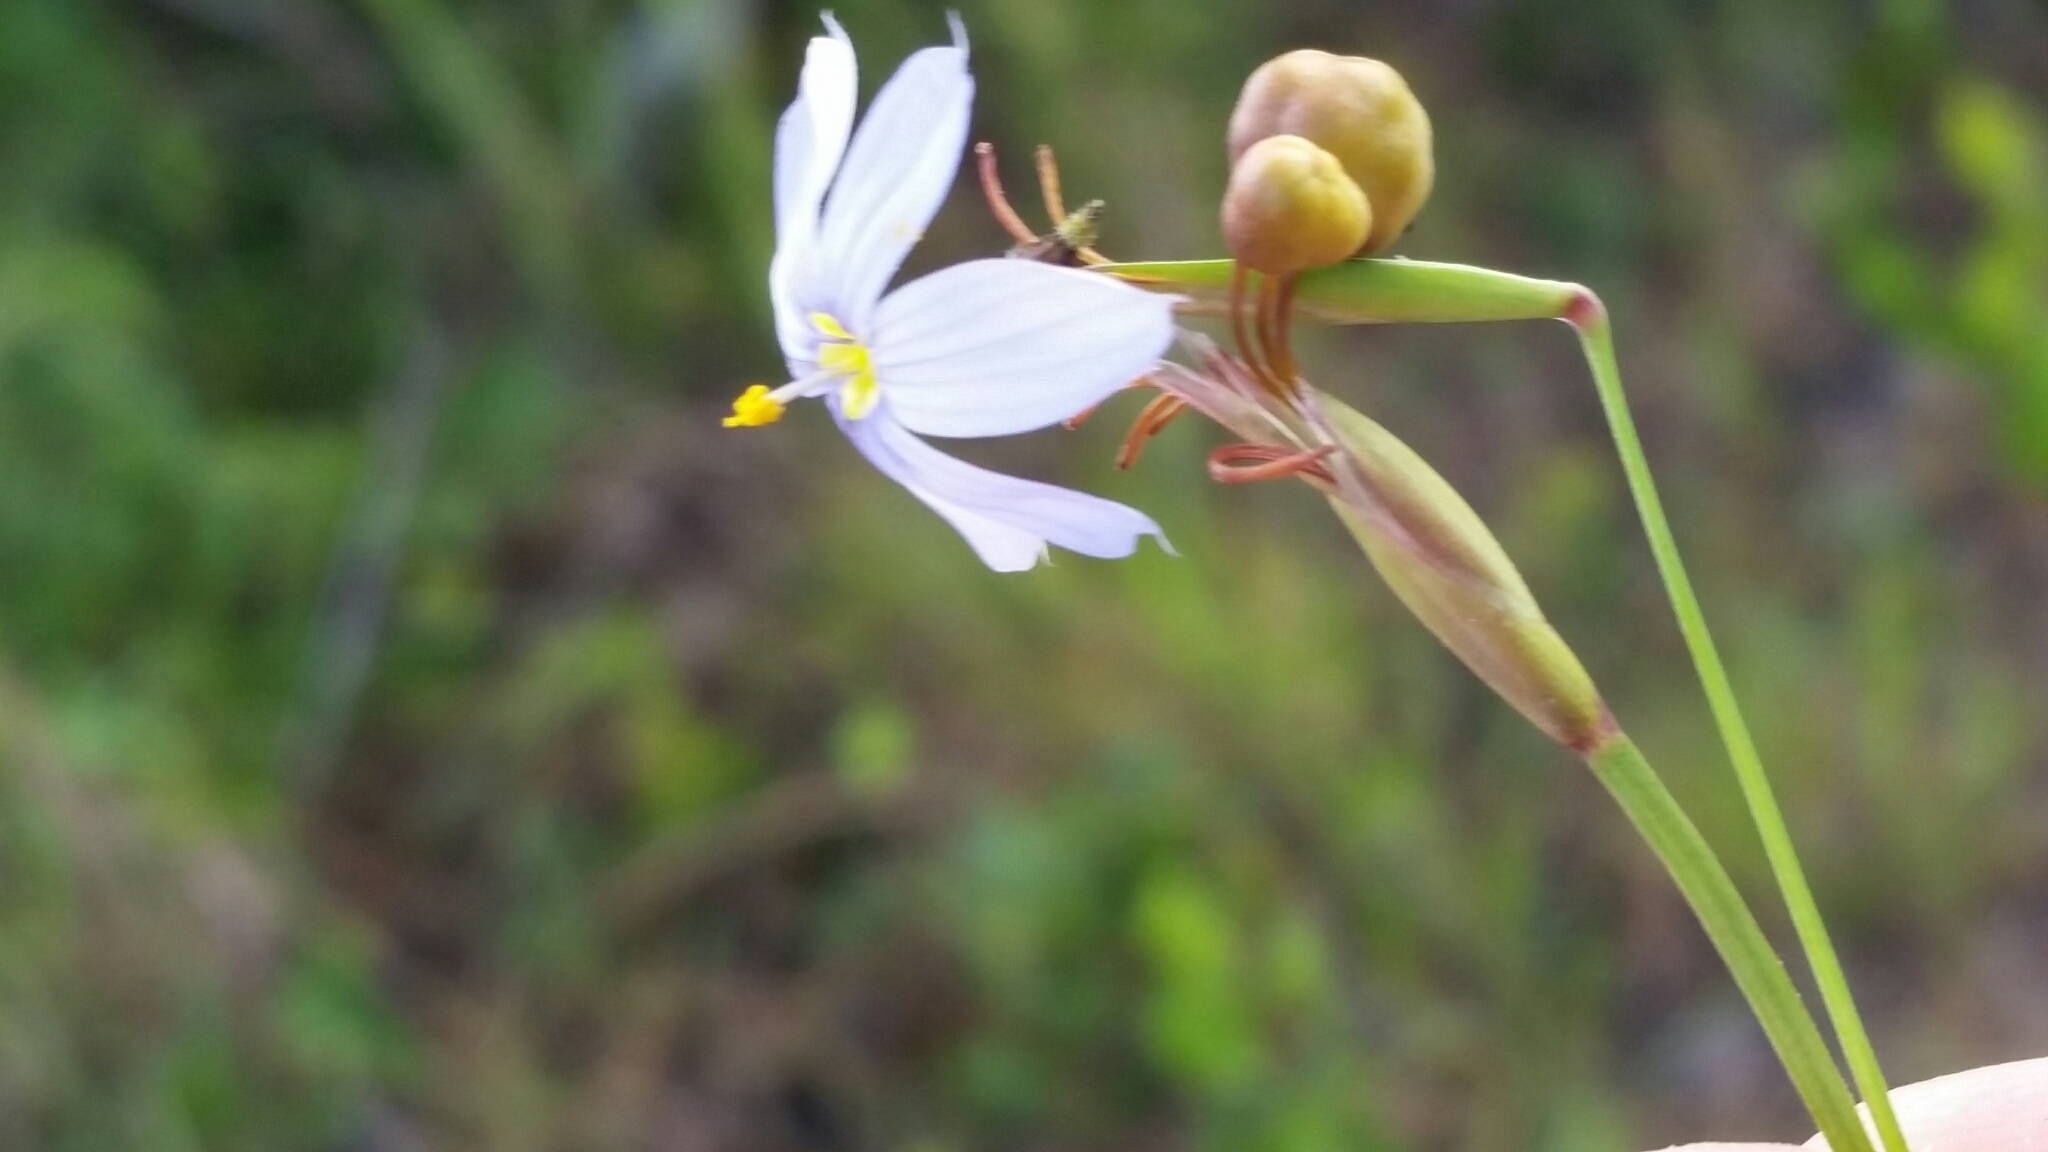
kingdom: Plantae
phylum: Tracheophyta
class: Liliopsida
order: Asparagales
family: Iridaceae
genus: Sisyrinchium
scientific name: Sisyrinchium nashii
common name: Nash's blue-eyed-grass
